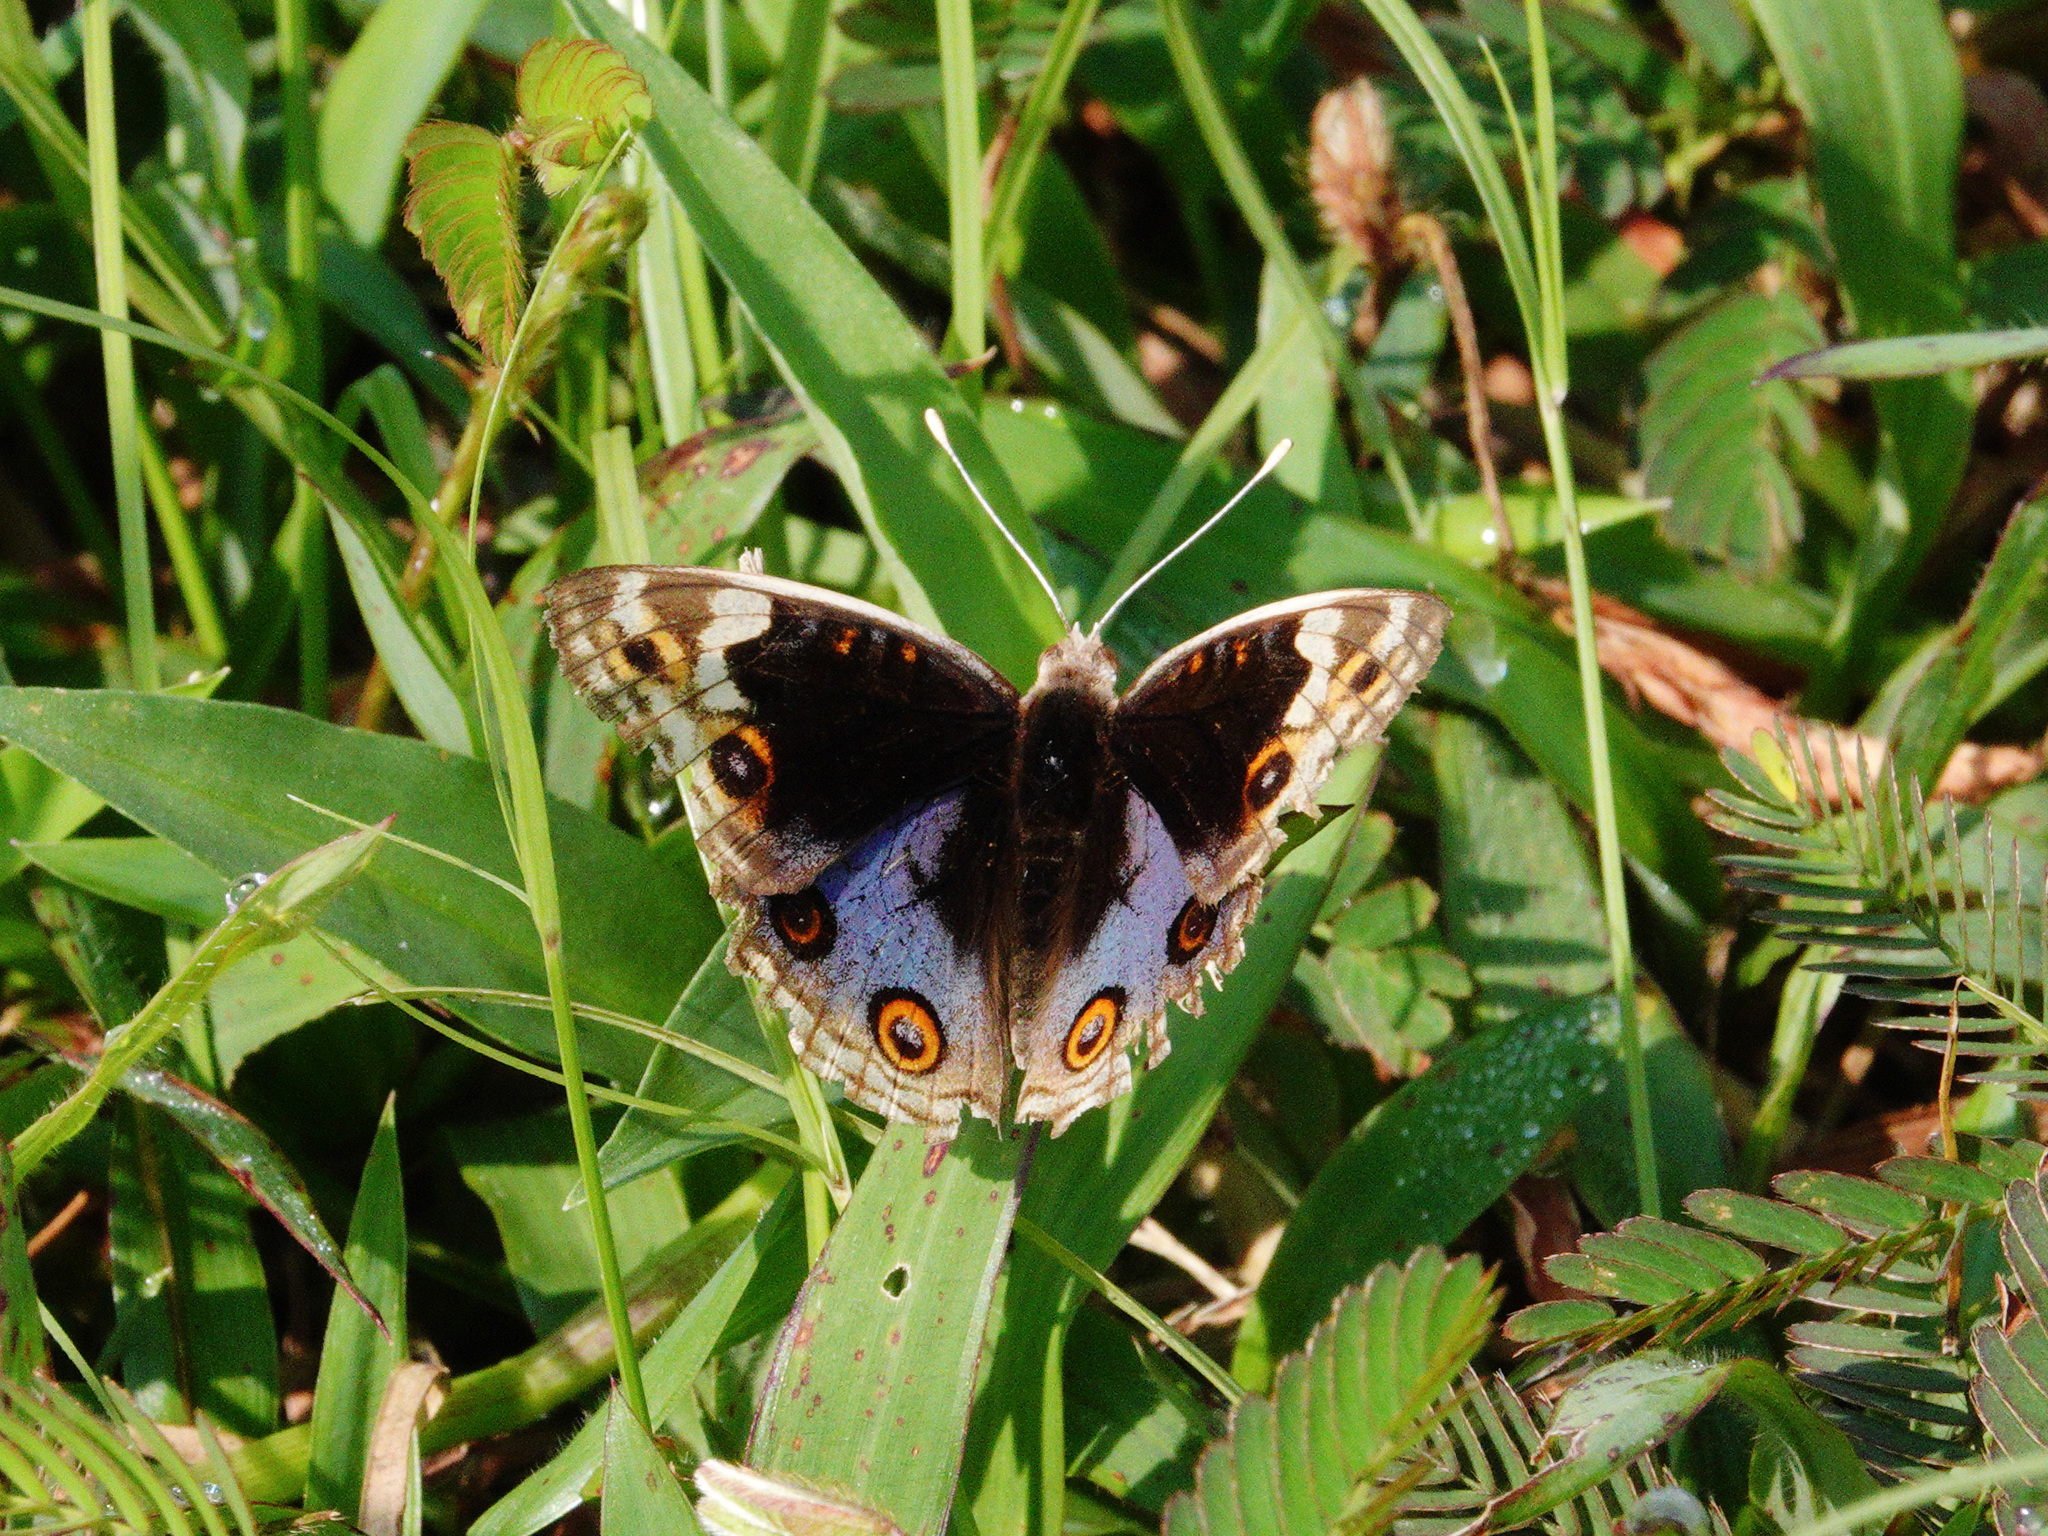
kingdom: Animalia
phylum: Arthropoda
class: Insecta
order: Lepidoptera
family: Nymphalidae
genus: Junonia
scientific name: Junonia orithya
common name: Blue pansy
